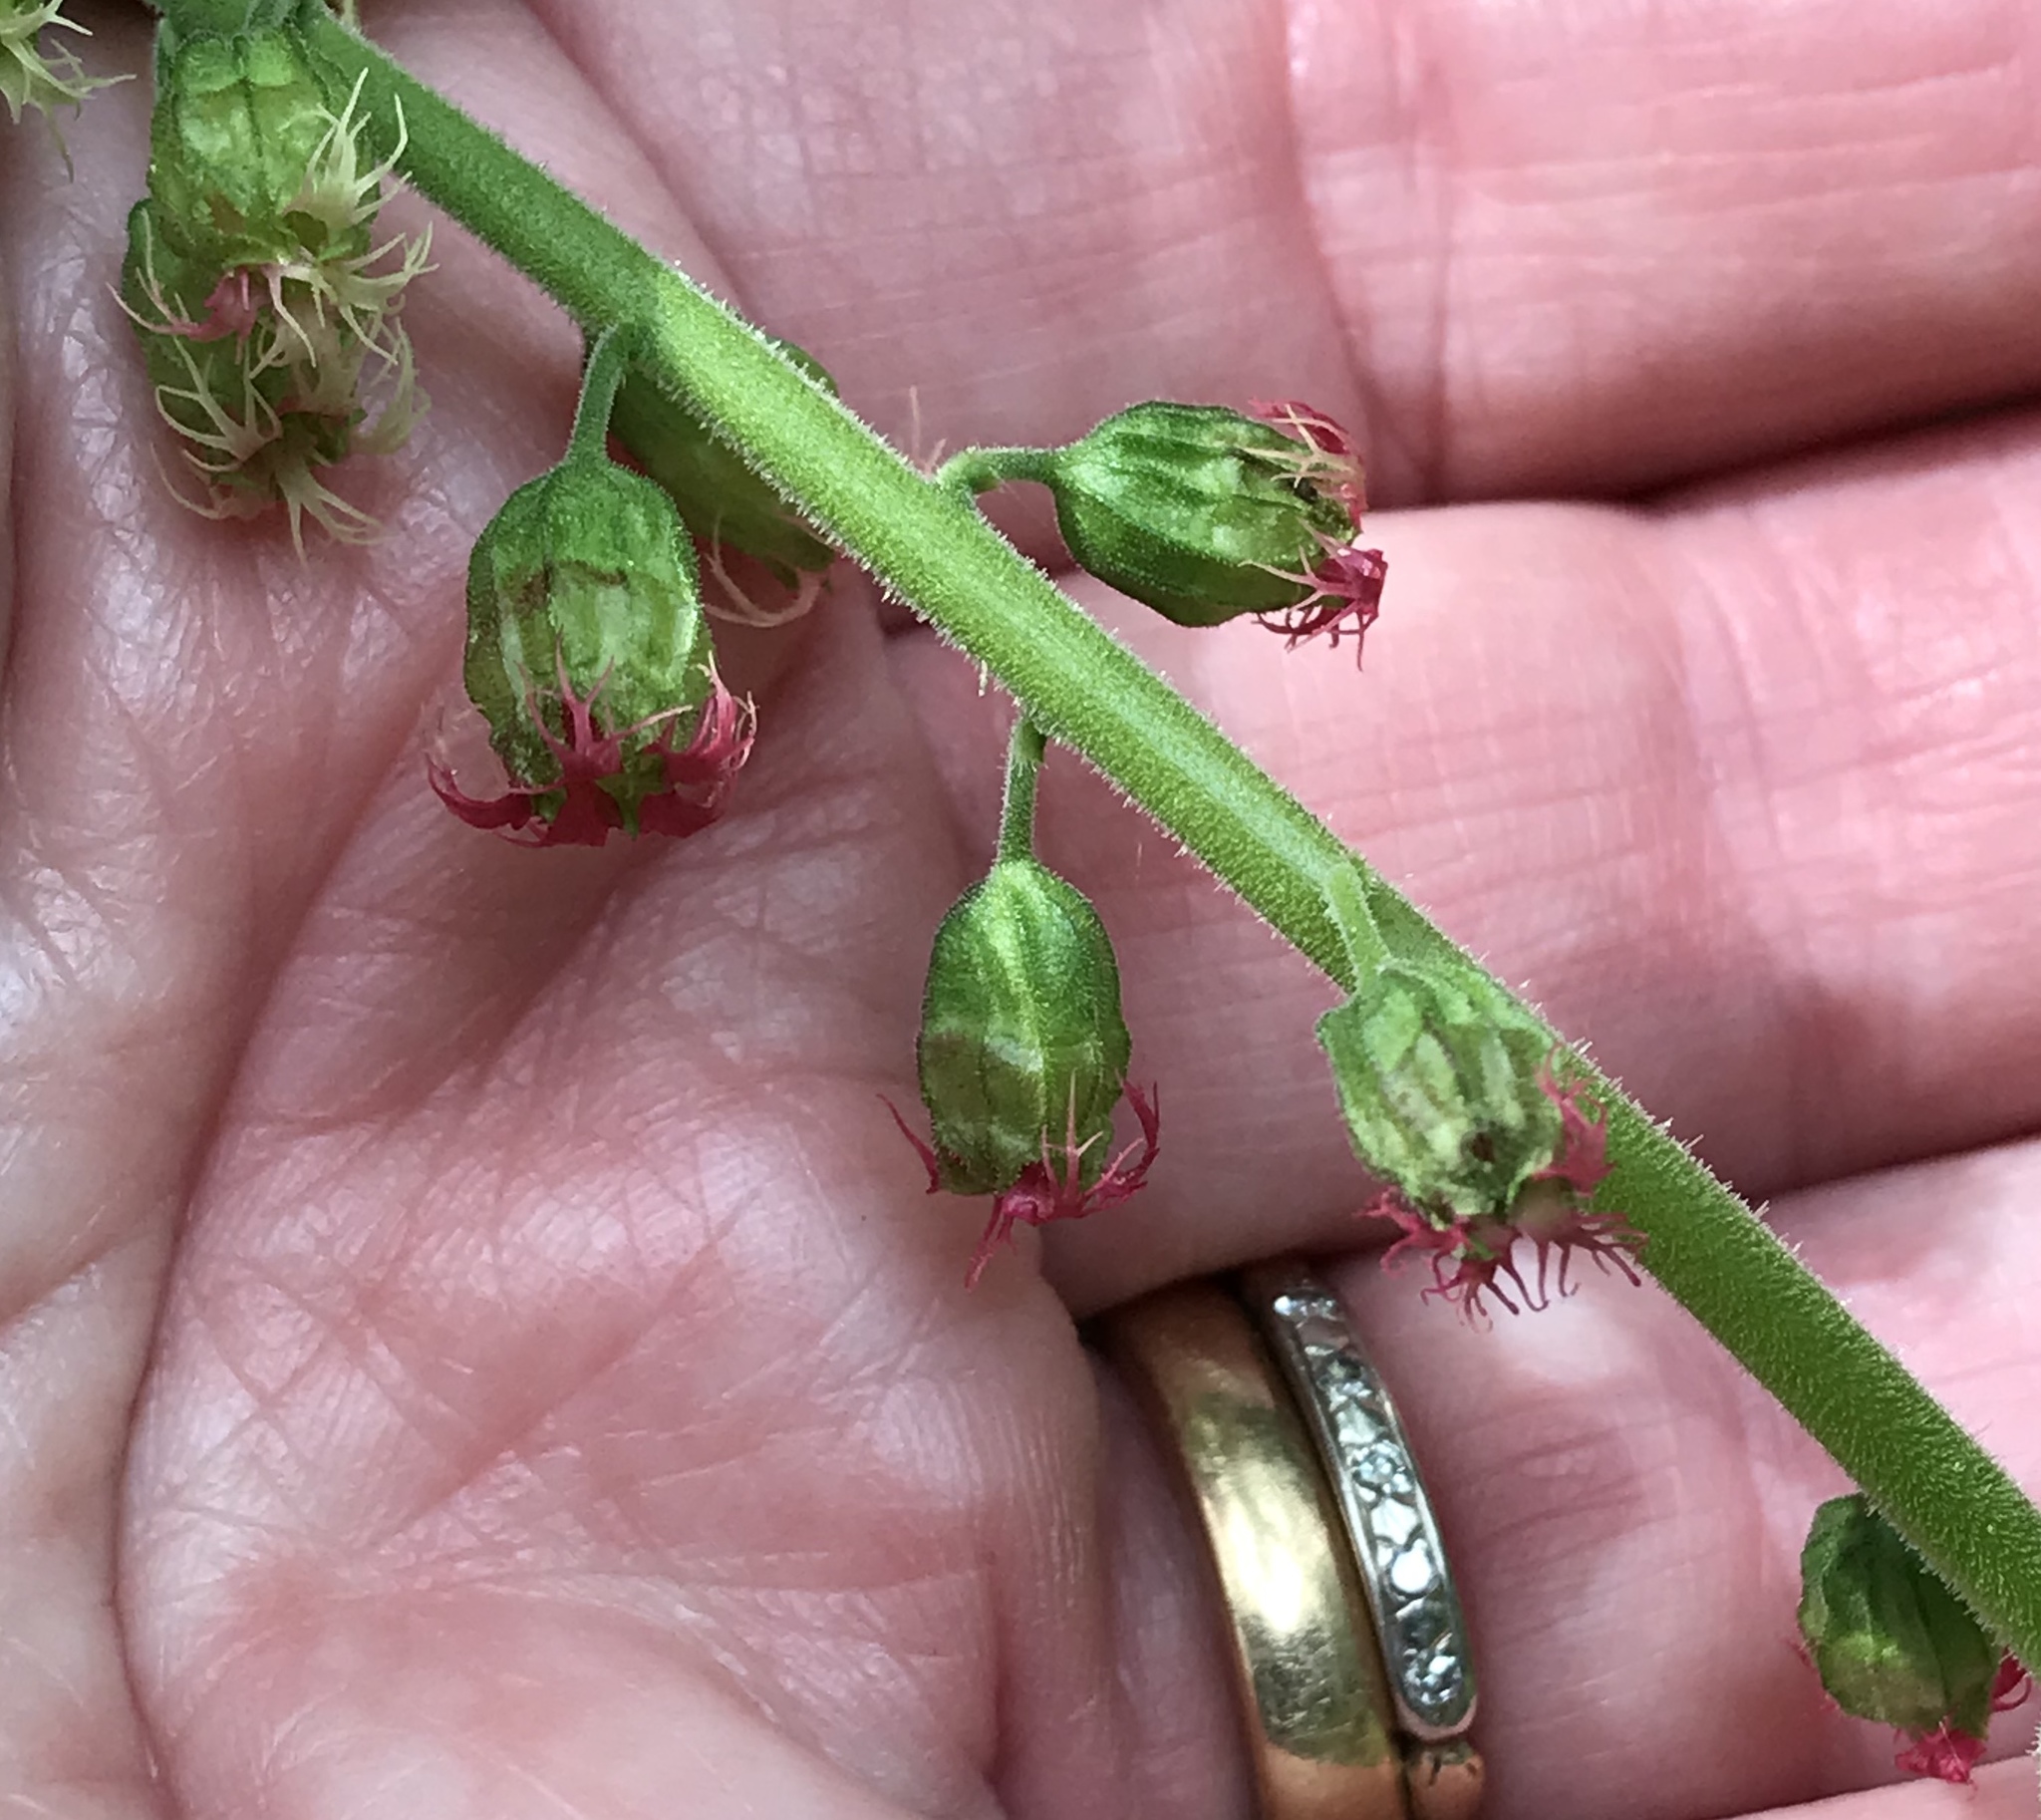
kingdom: Plantae
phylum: Tracheophyta
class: Magnoliopsida
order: Saxifragales
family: Saxifragaceae
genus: Tellima
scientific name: Tellima grandiflora
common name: Fringecups
